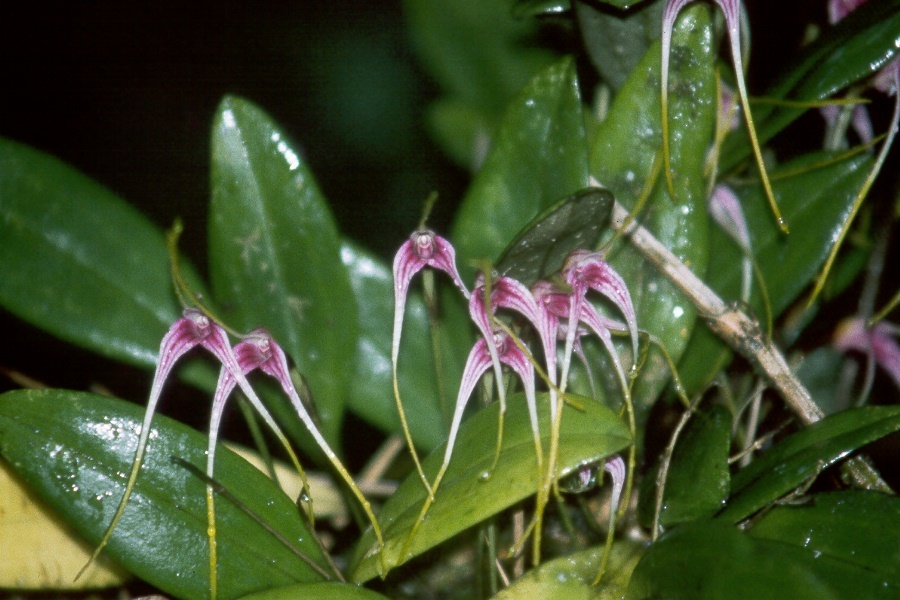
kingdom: Plantae
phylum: Tracheophyta
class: Liliopsida
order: Asparagales
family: Orchidaceae
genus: Masdevallia
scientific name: Masdevallia picta
